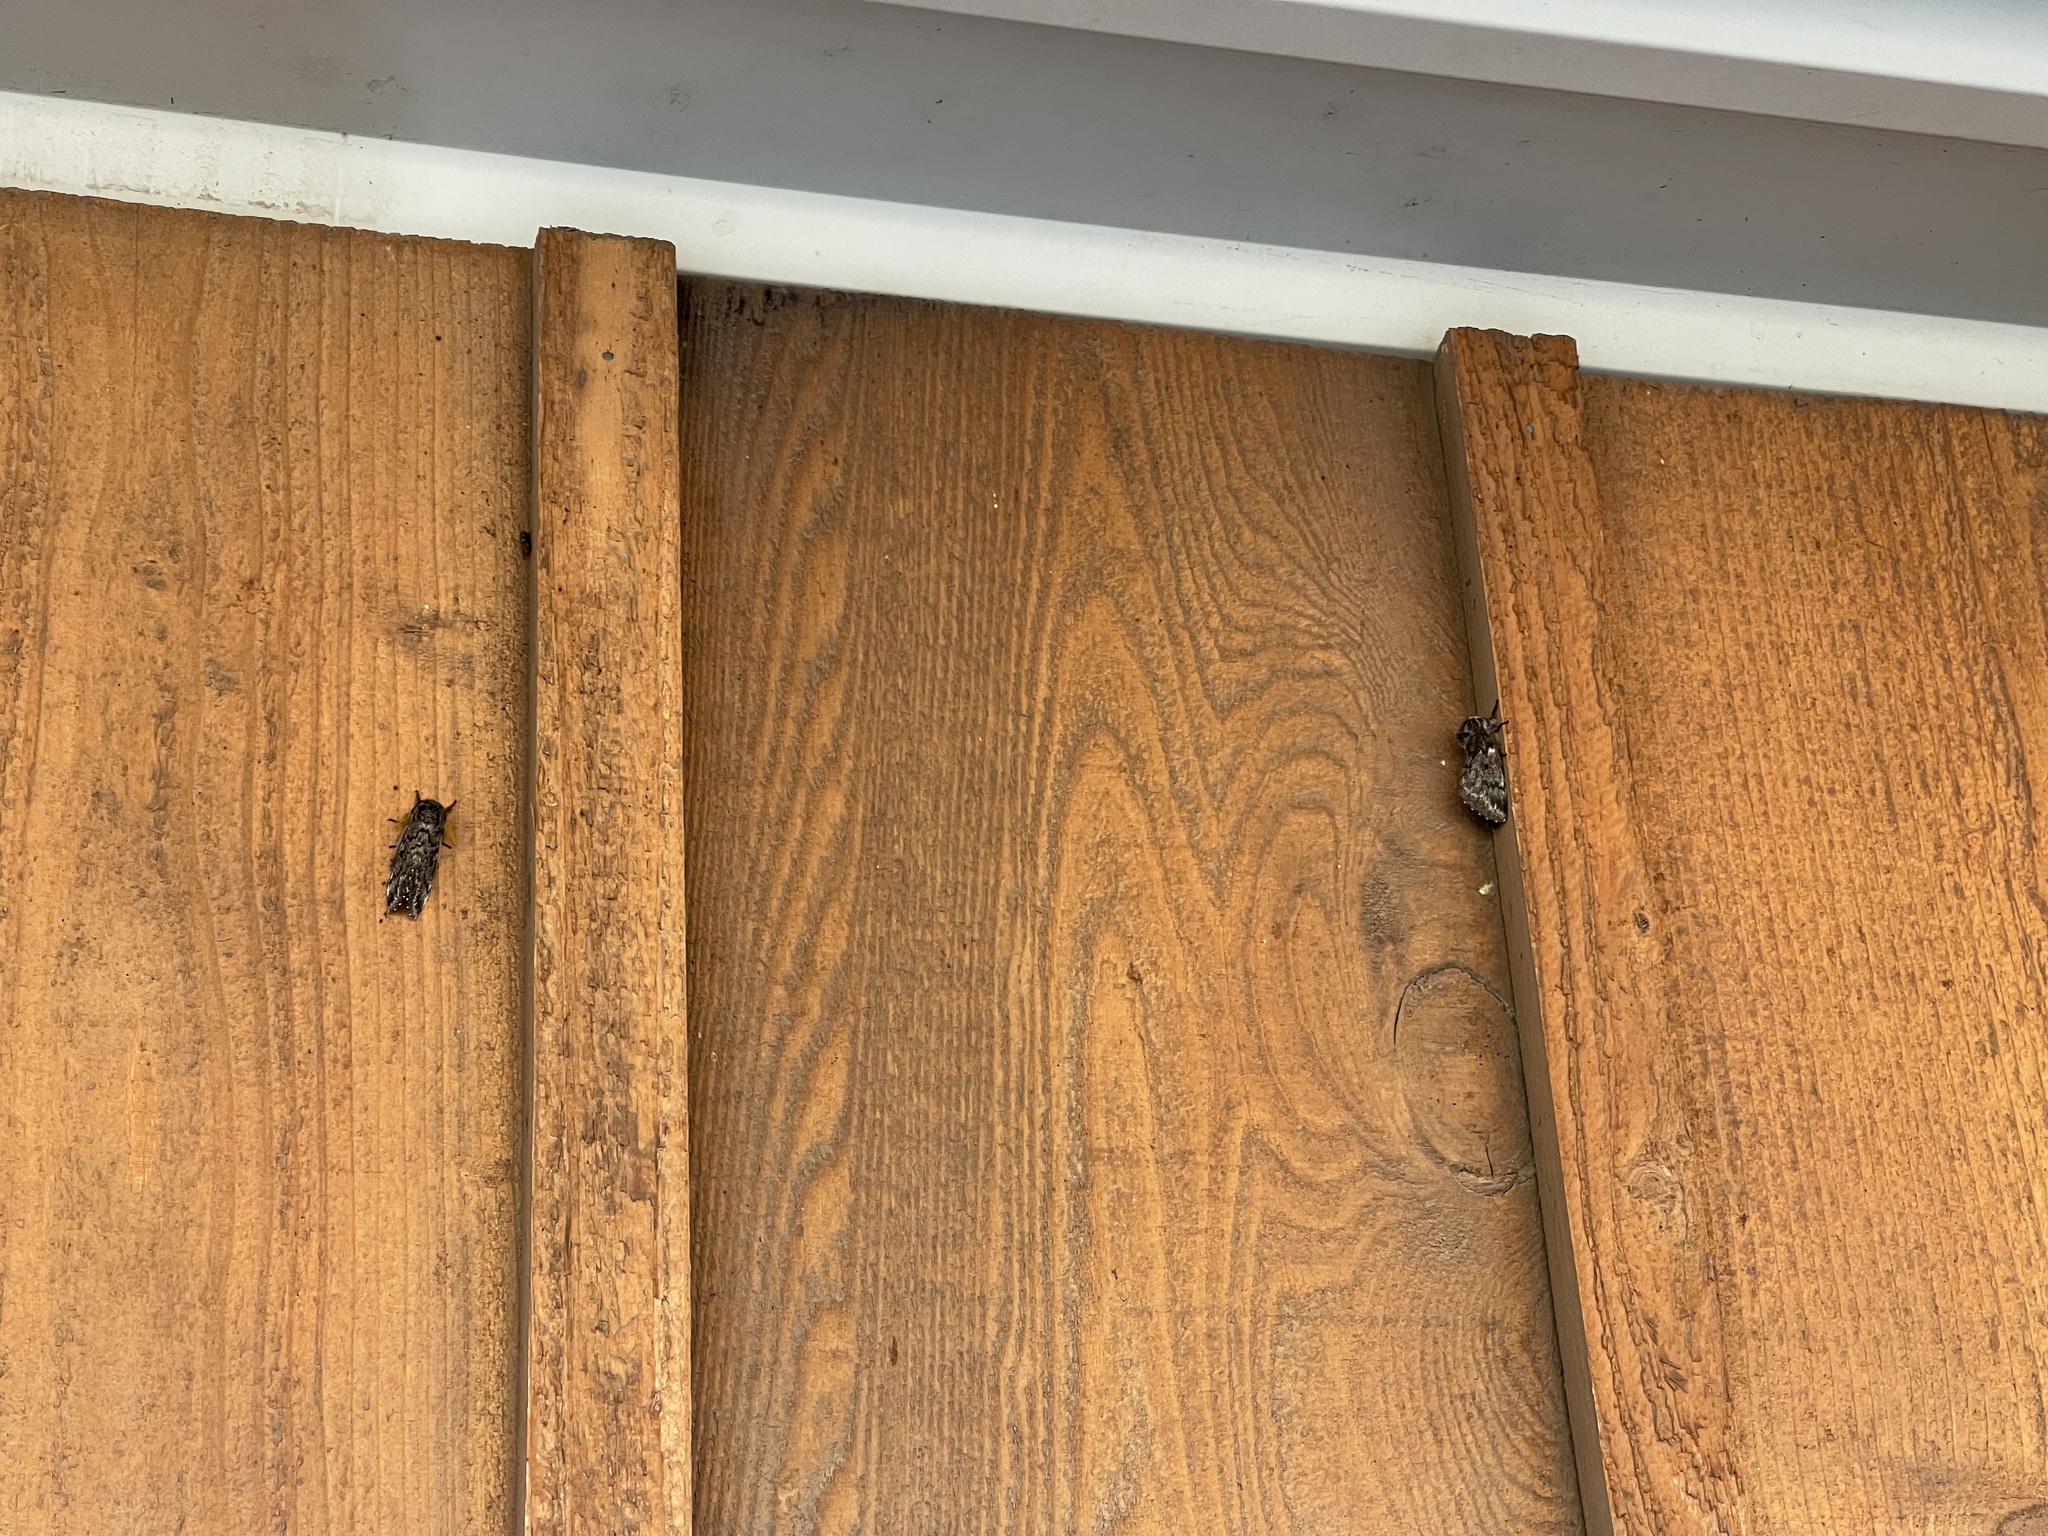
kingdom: Animalia
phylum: Arthropoda
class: Insecta
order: Lepidoptera
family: Saturniidae
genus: Coloradia
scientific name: Coloradia pandora
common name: Pandora pinemoth
